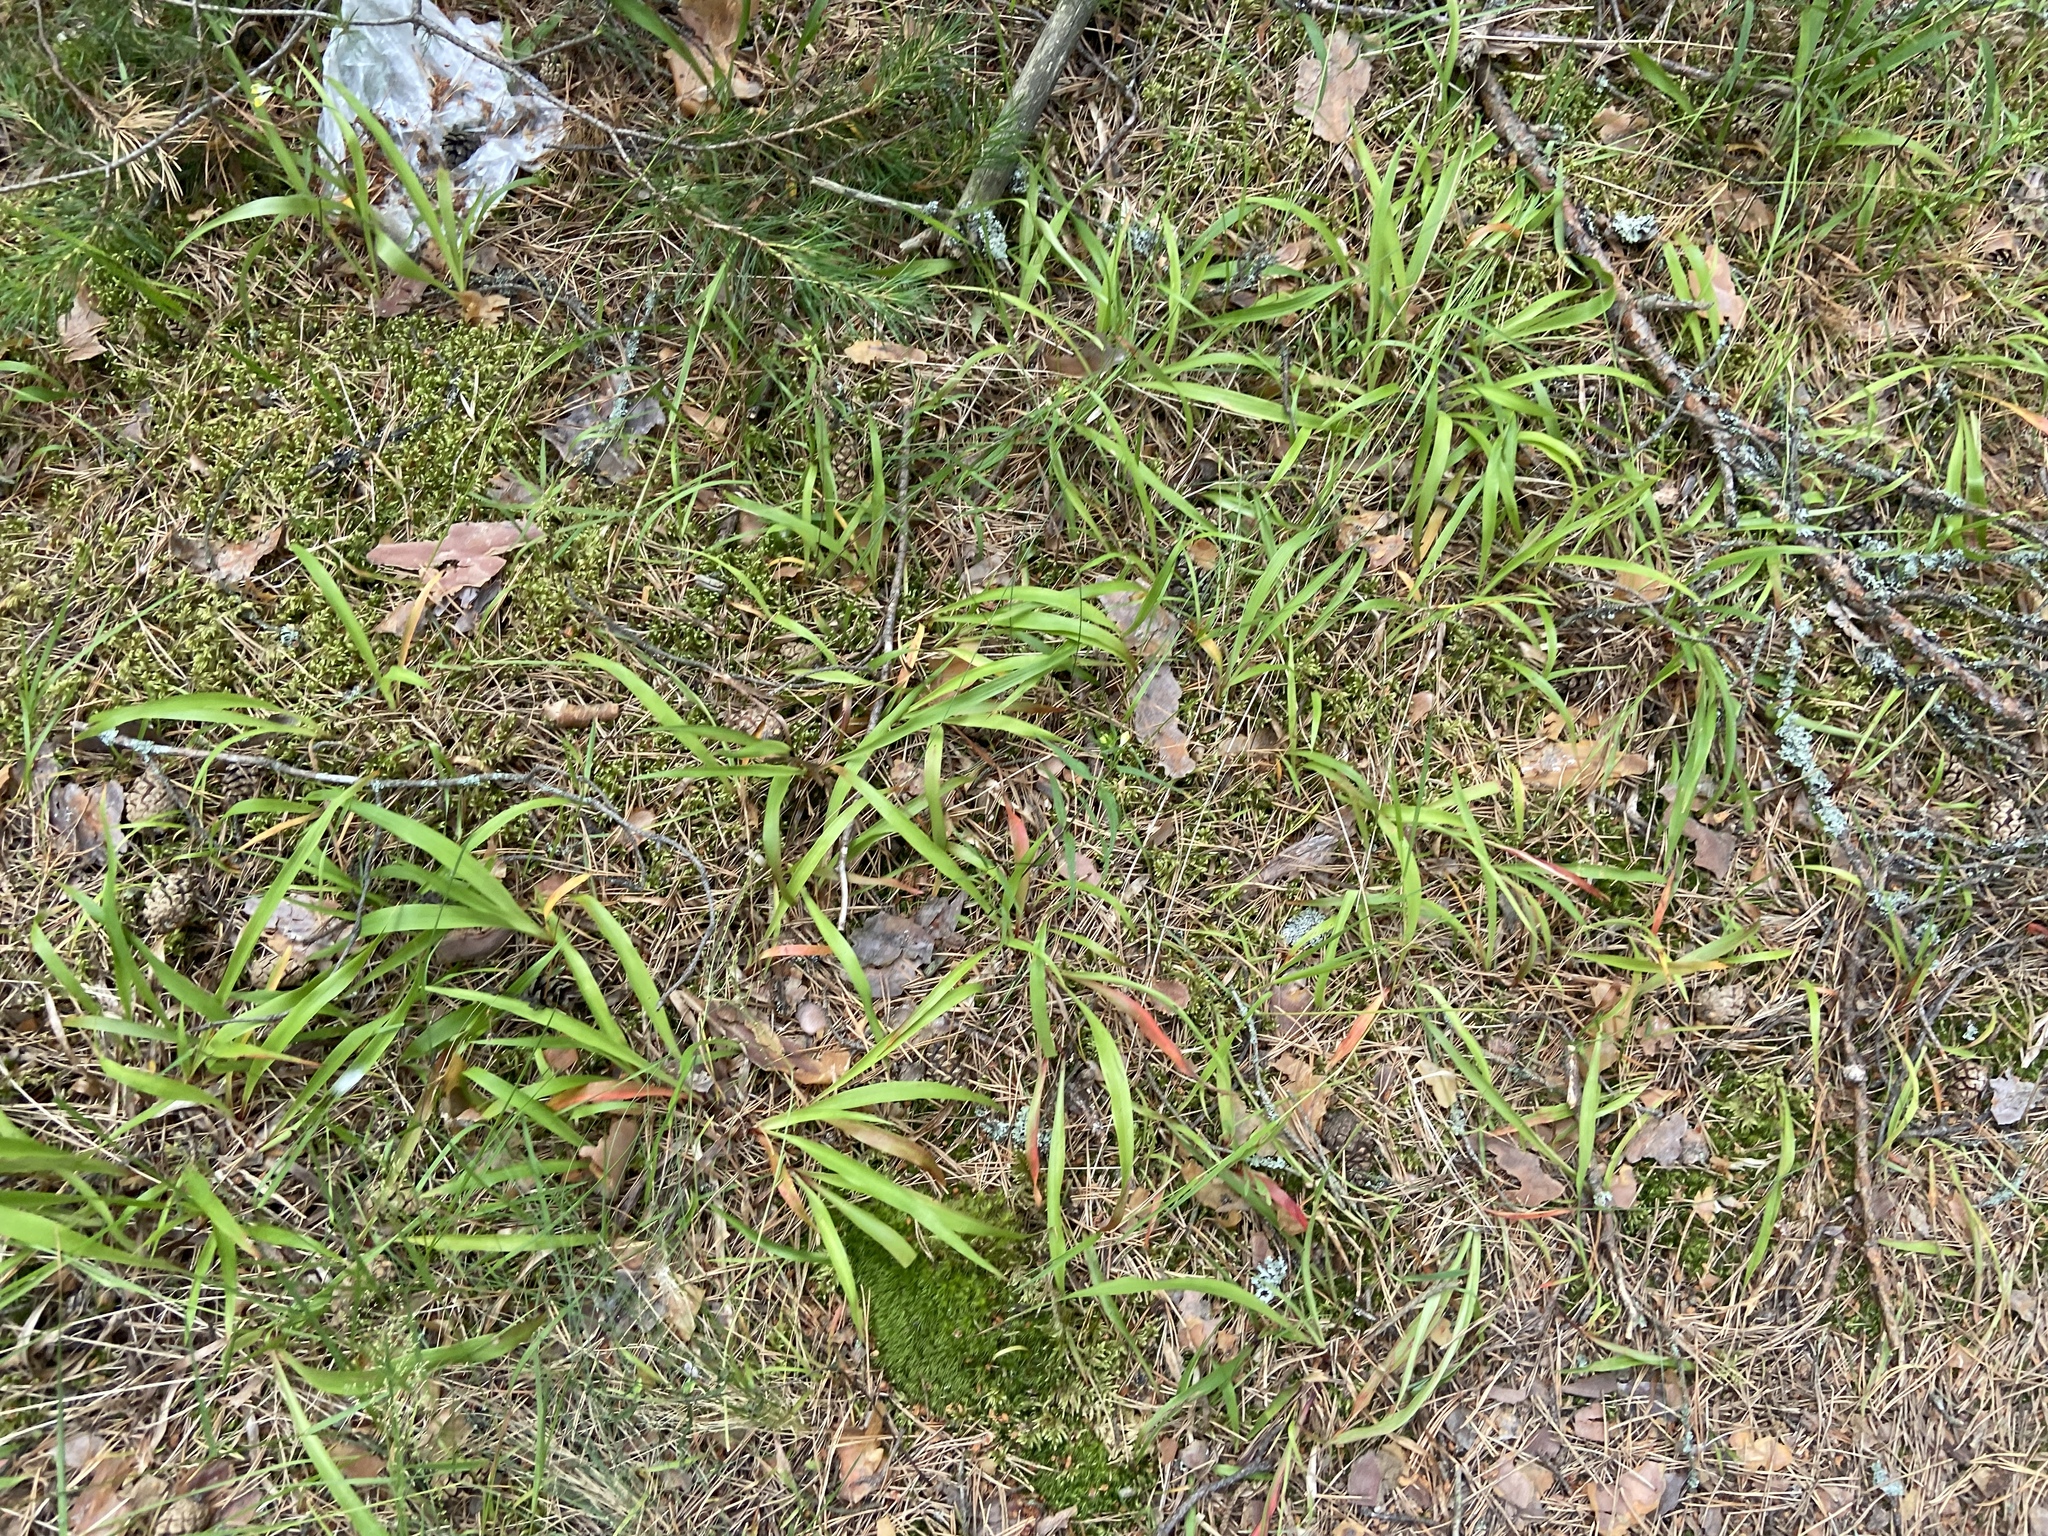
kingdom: Plantae
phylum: Tracheophyta
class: Liliopsida
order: Poales
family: Juncaceae
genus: Luzula
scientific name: Luzula pilosa
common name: Hairy wood-rush
